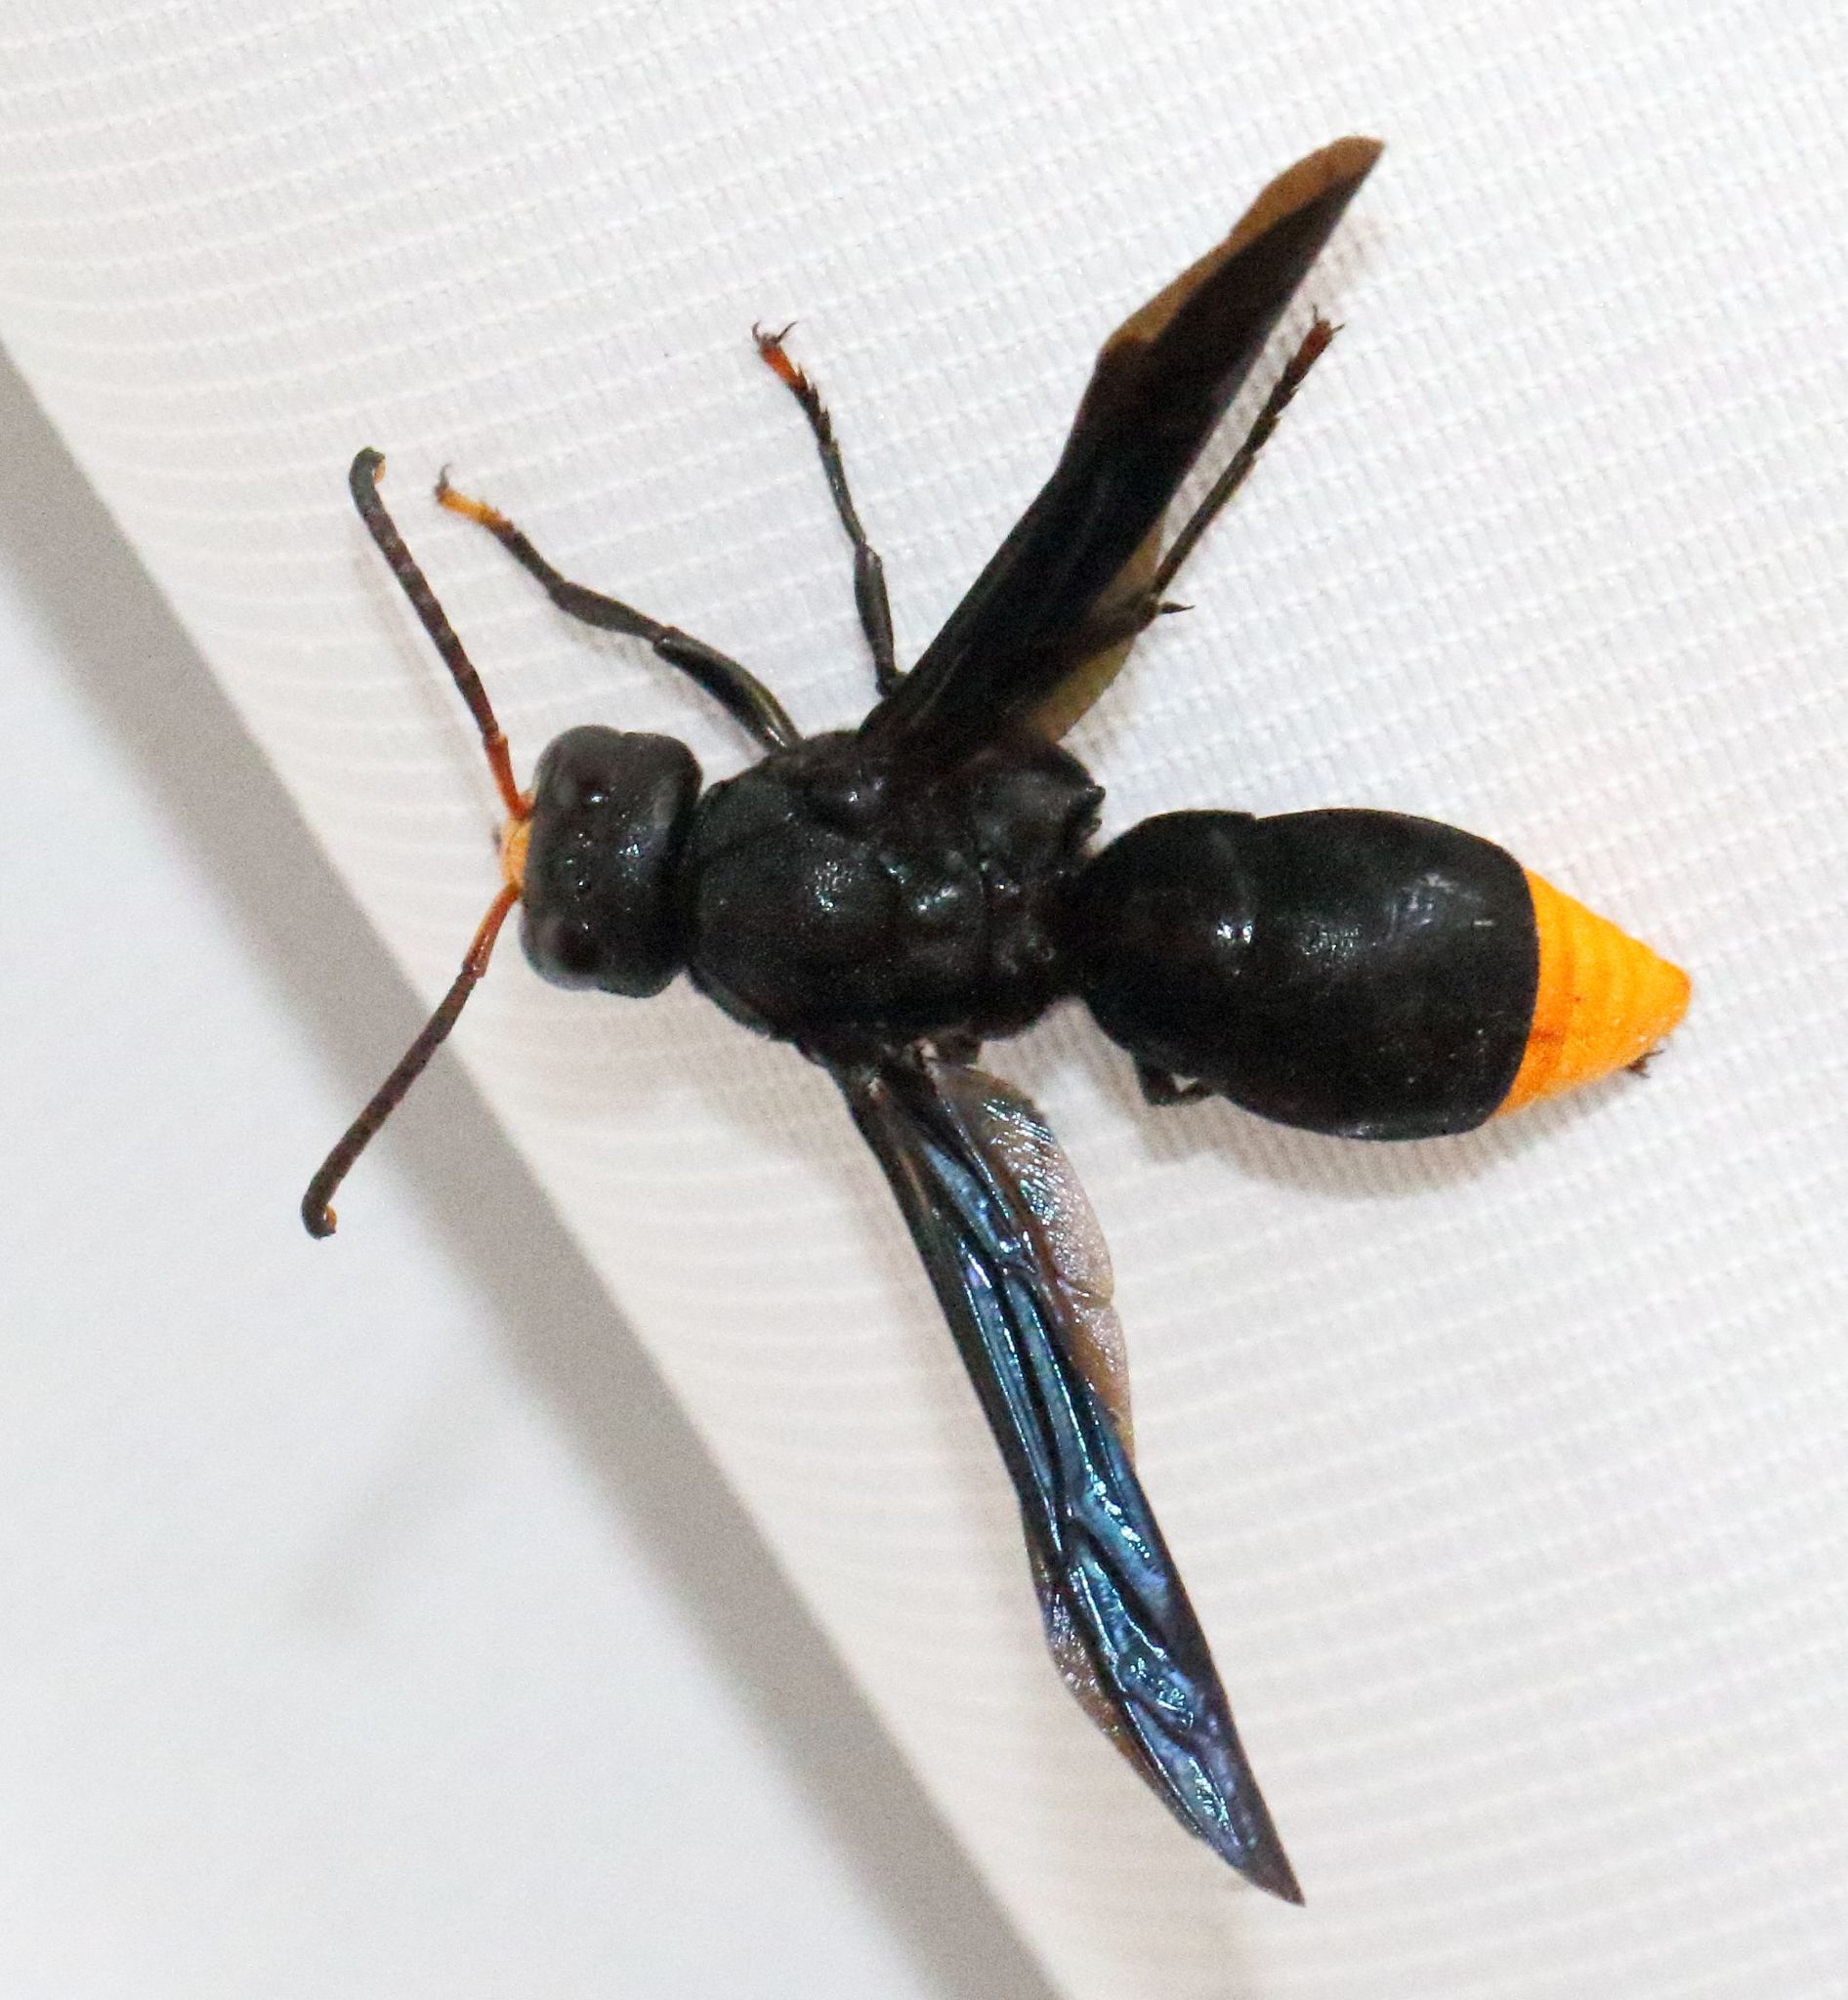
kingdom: Animalia
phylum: Arthropoda
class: Insecta
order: Hymenoptera
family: Vespidae
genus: Synagris
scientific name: Synagris analis
